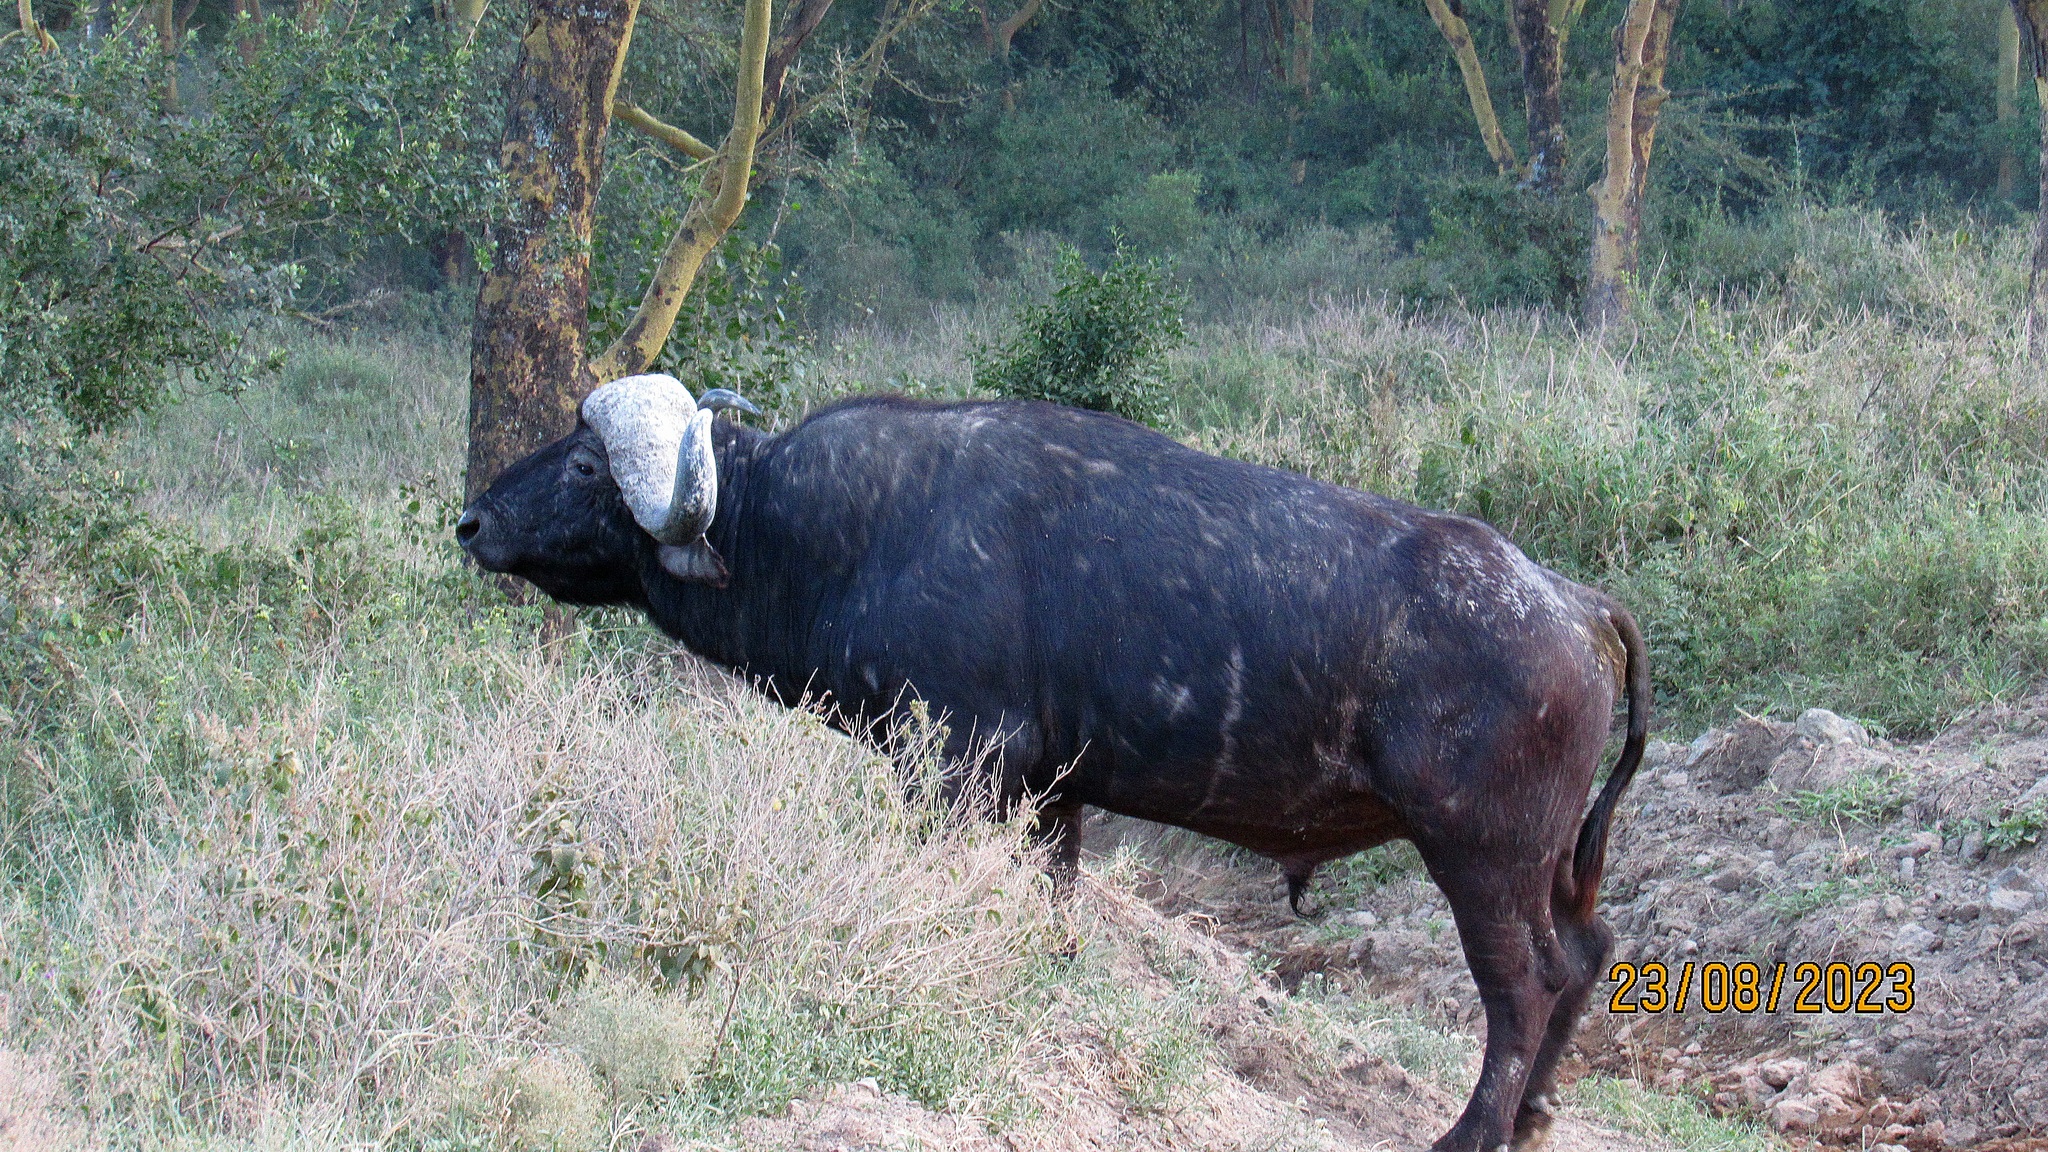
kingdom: Animalia
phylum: Chordata
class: Mammalia
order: Artiodactyla
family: Bovidae
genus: Syncerus
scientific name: Syncerus caffer
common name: African buffalo
